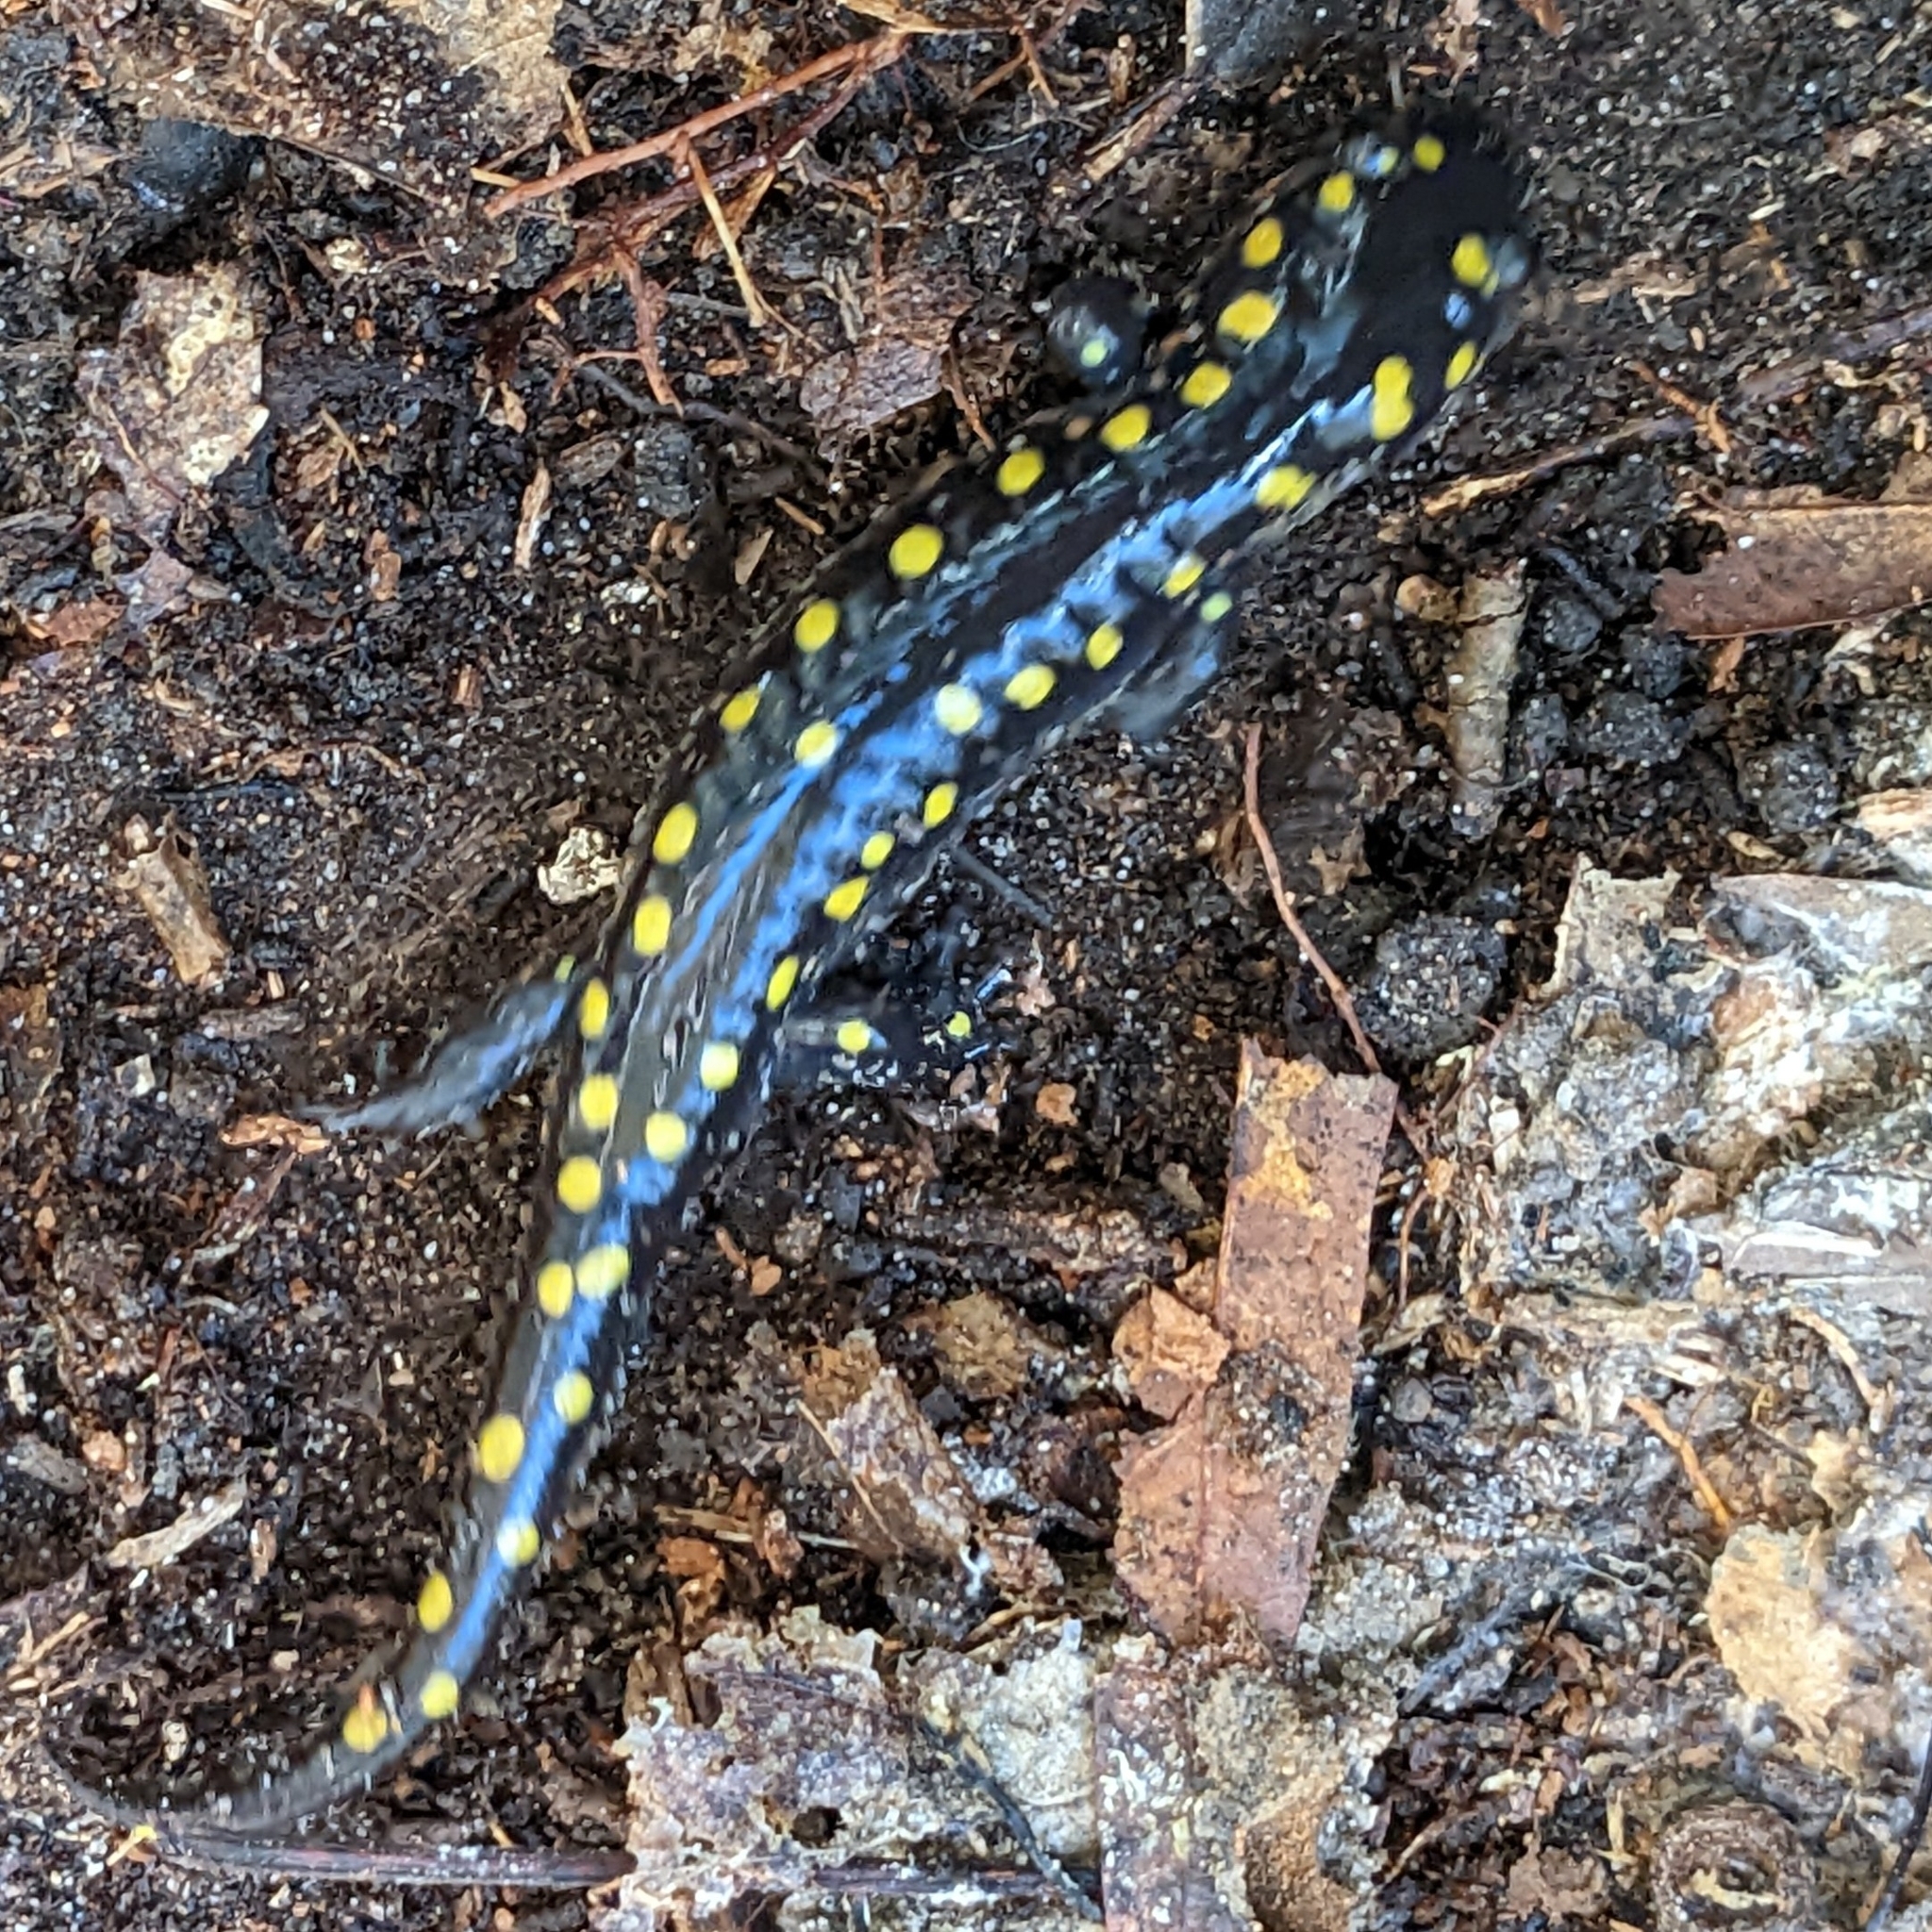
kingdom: Animalia
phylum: Chordata
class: Amphibia
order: Caudata
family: Ambystomatidae
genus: Ambystoma
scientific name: Ambystoma maculatum
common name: Spotted salamander
